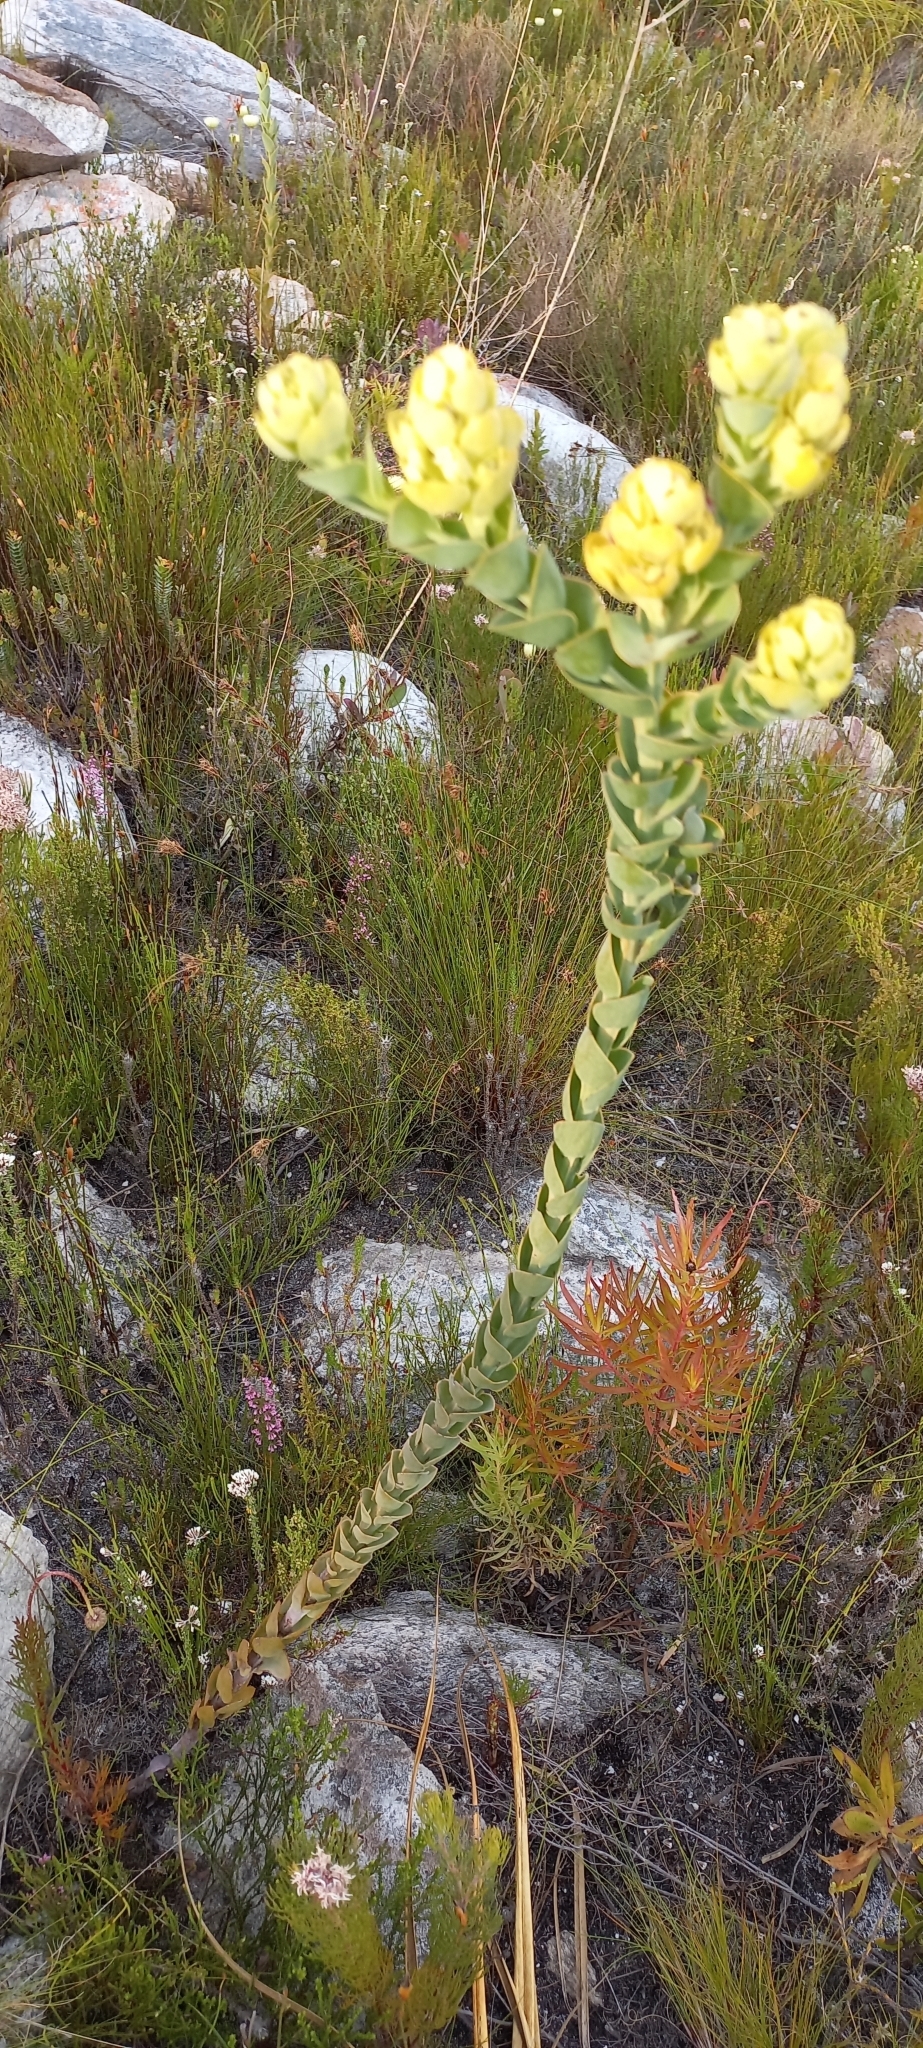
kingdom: Plantae
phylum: Tracheophyta
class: Magnoliopsida
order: Santalales
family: Thesiaceae
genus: Thesium
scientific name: Thesium euphorbioides
